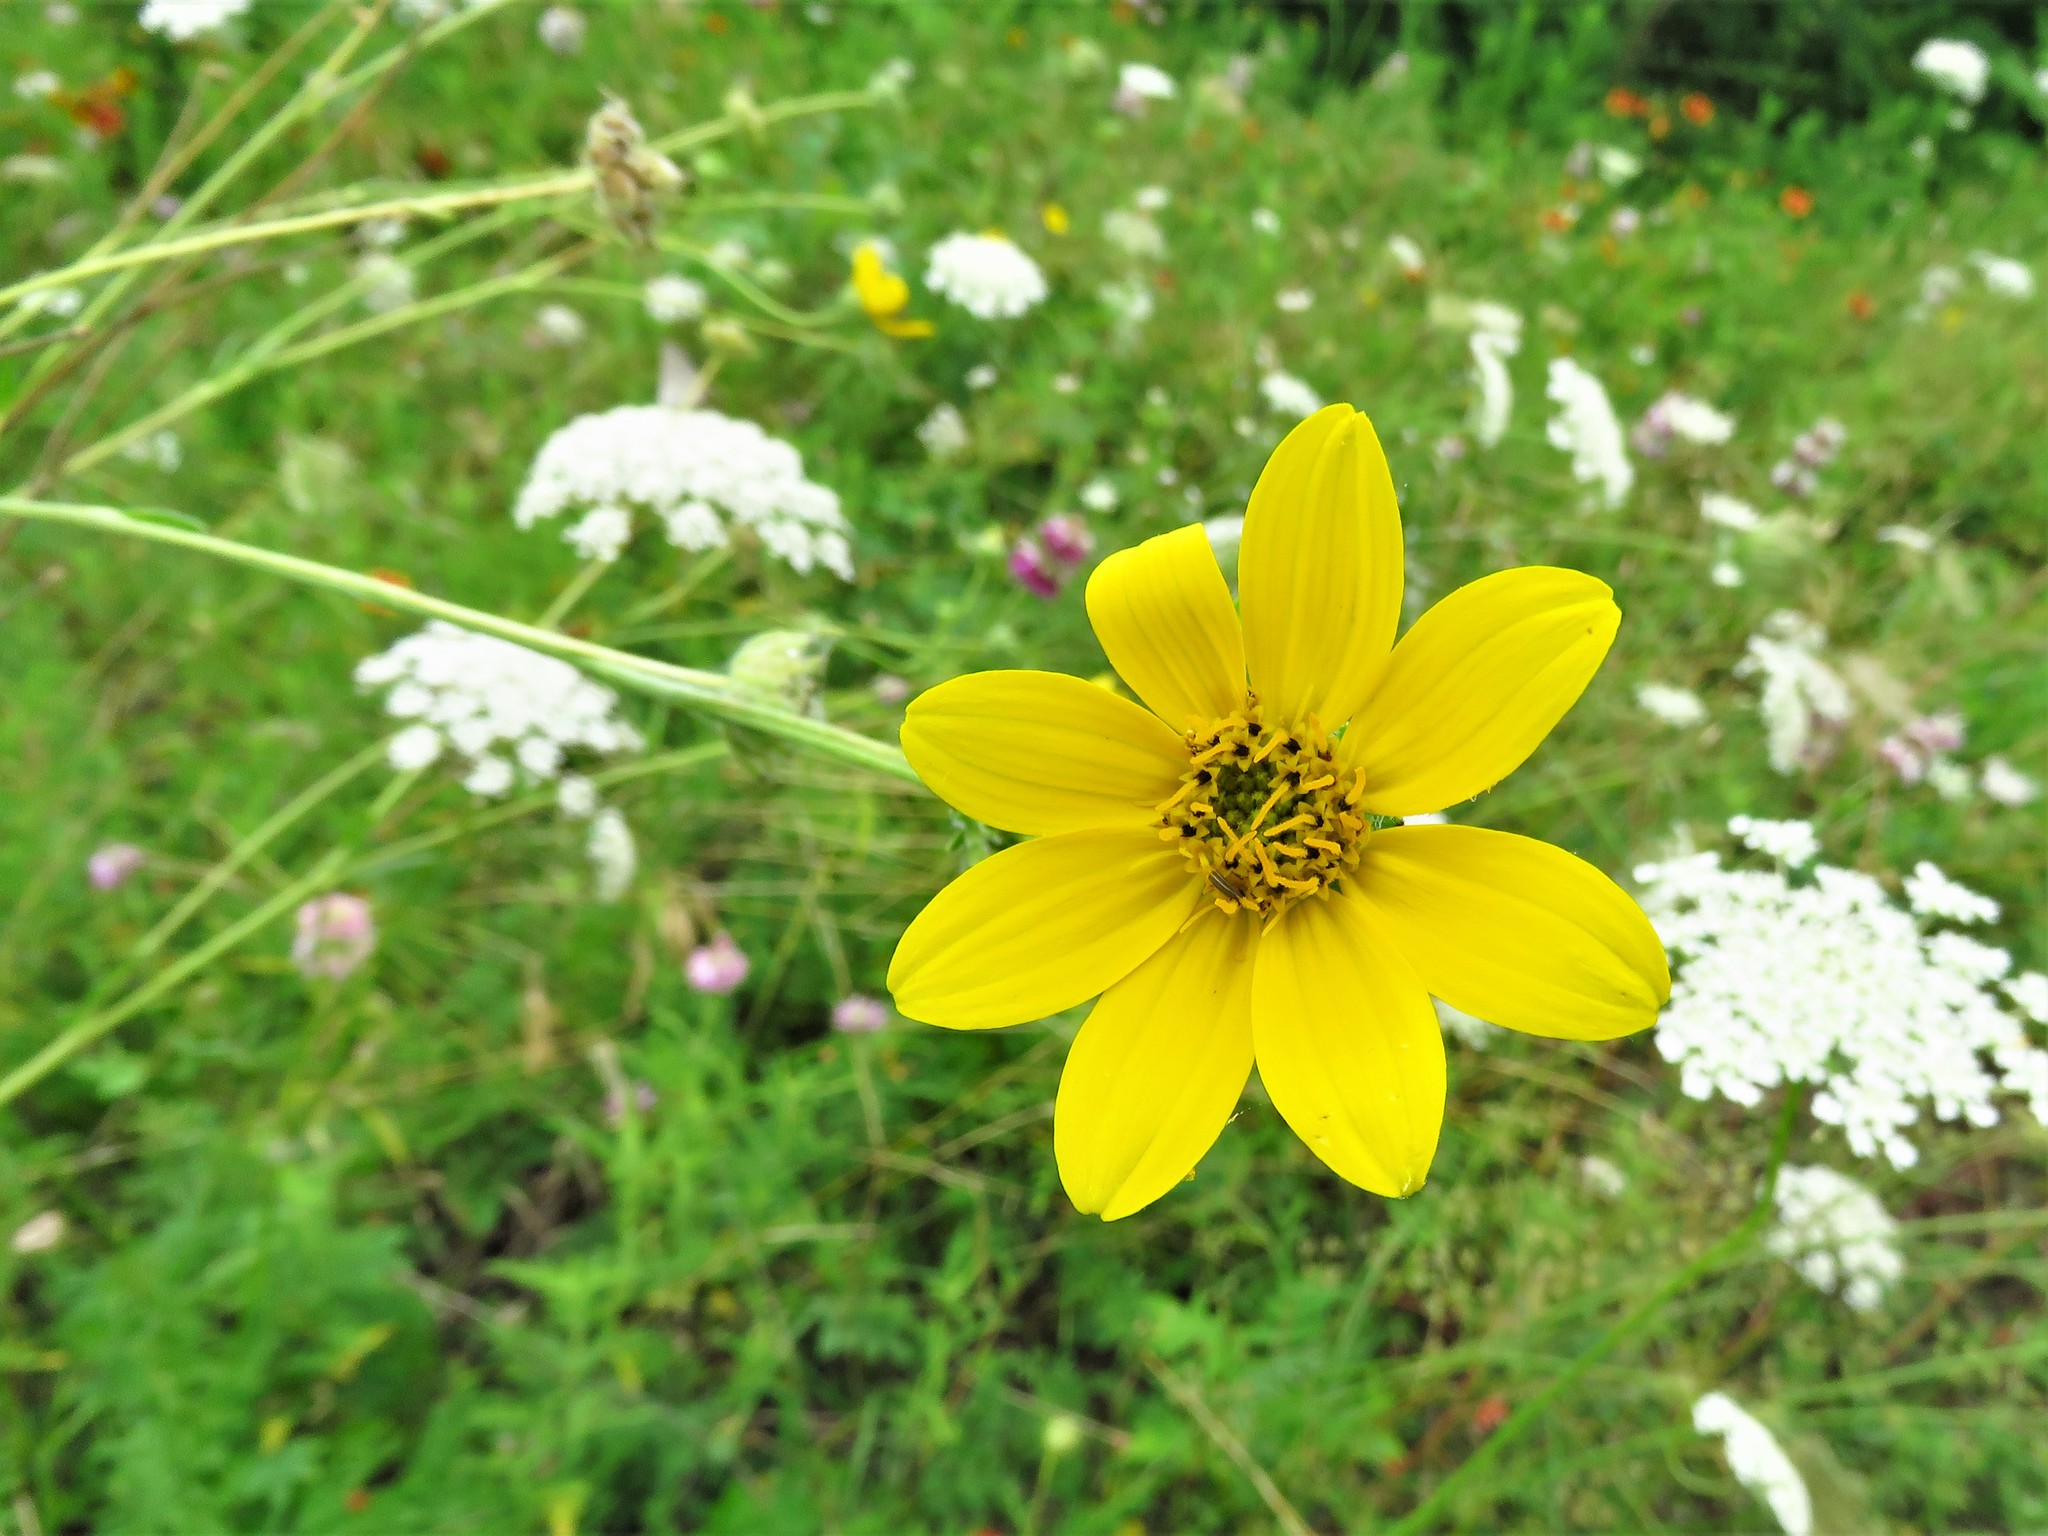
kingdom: Plantae
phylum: Tracheophyta
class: Magnoliopsida
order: Asterales
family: Asteraceae
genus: Engelmannia
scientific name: Engelmannia peristenia
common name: Engelmann's daisy
